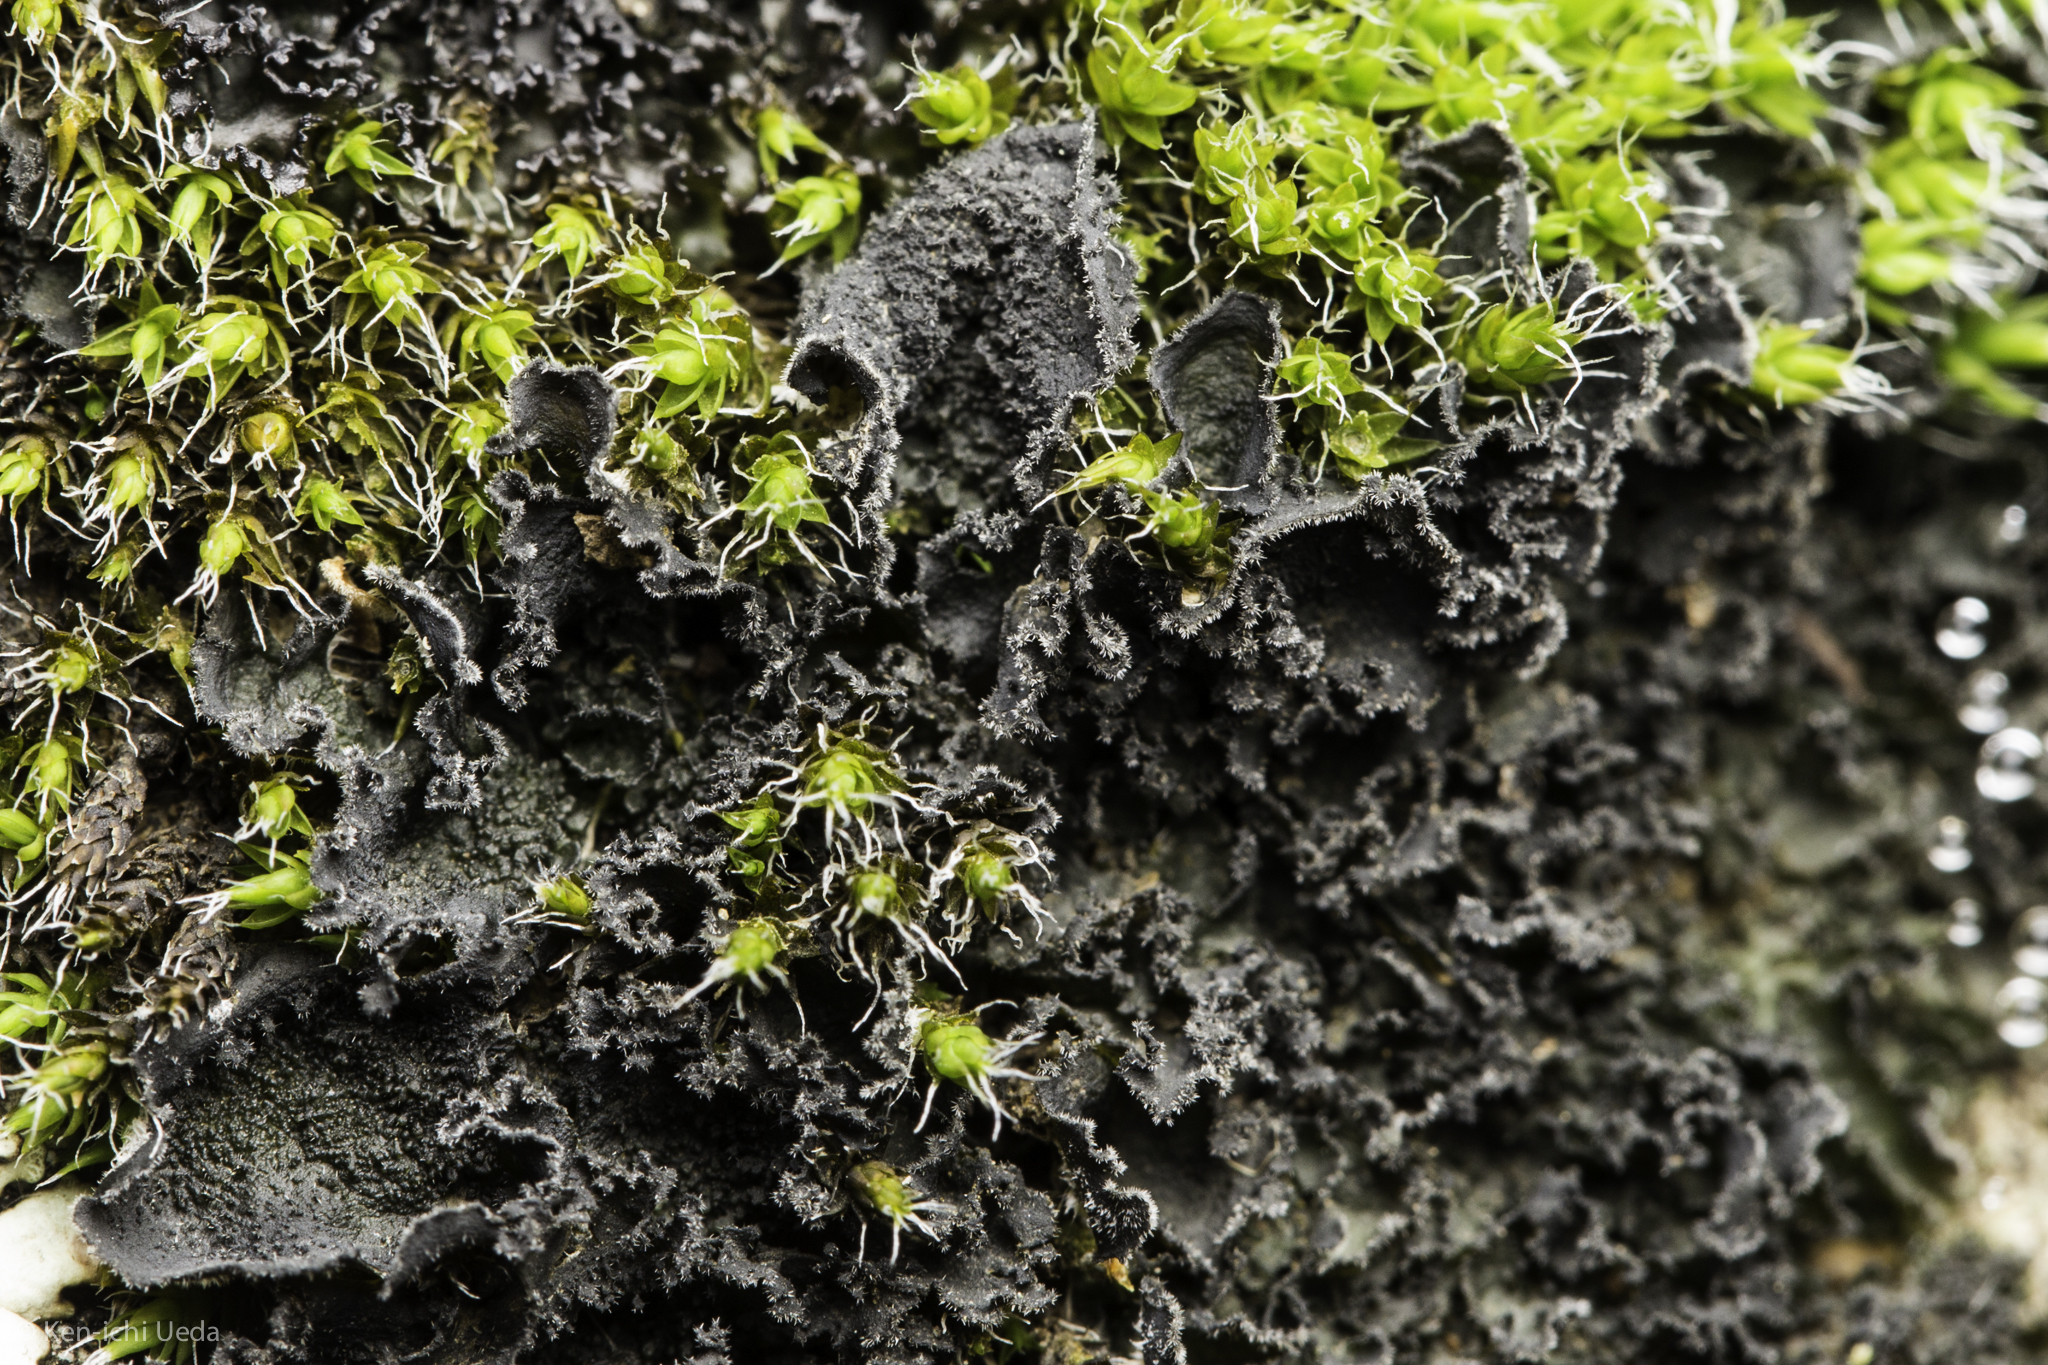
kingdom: Fungi
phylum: Ascomycota
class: Lecanoromycetes
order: Peltigerales
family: Massalongiaceae
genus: Leptochidium
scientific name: Leptochidium albociliatum
